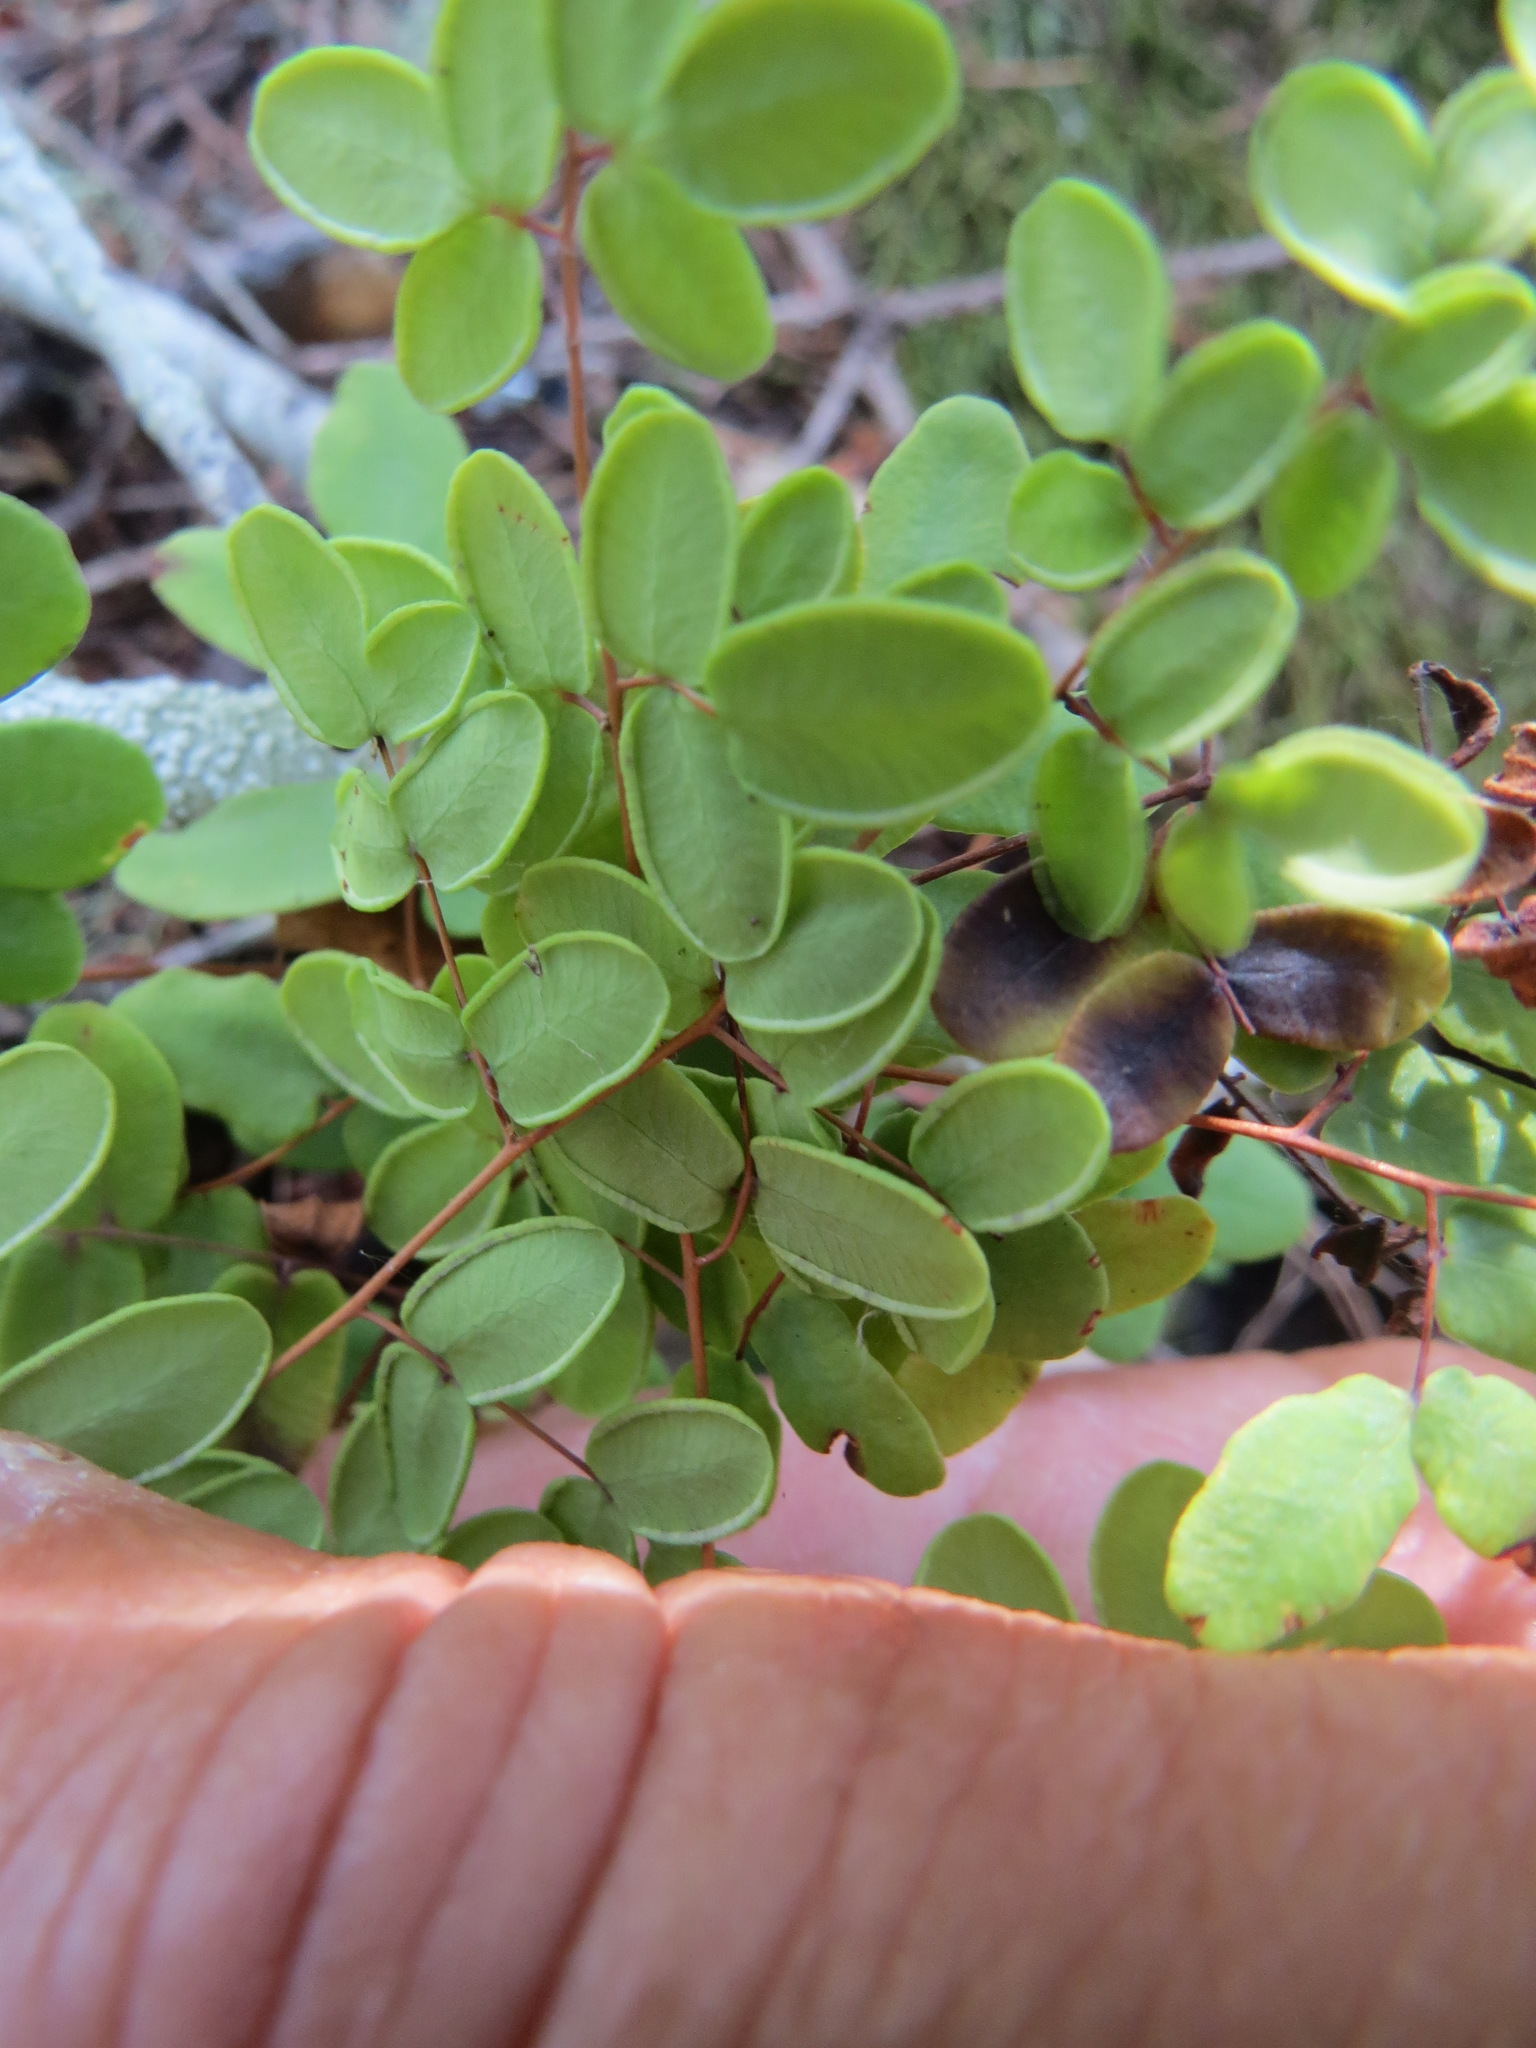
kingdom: Plantae
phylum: Tracheophyta
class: Polypodiopsida
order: Polypodiales
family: Pteridaceae
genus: Pellaea
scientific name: Pellaea andromedifolia
